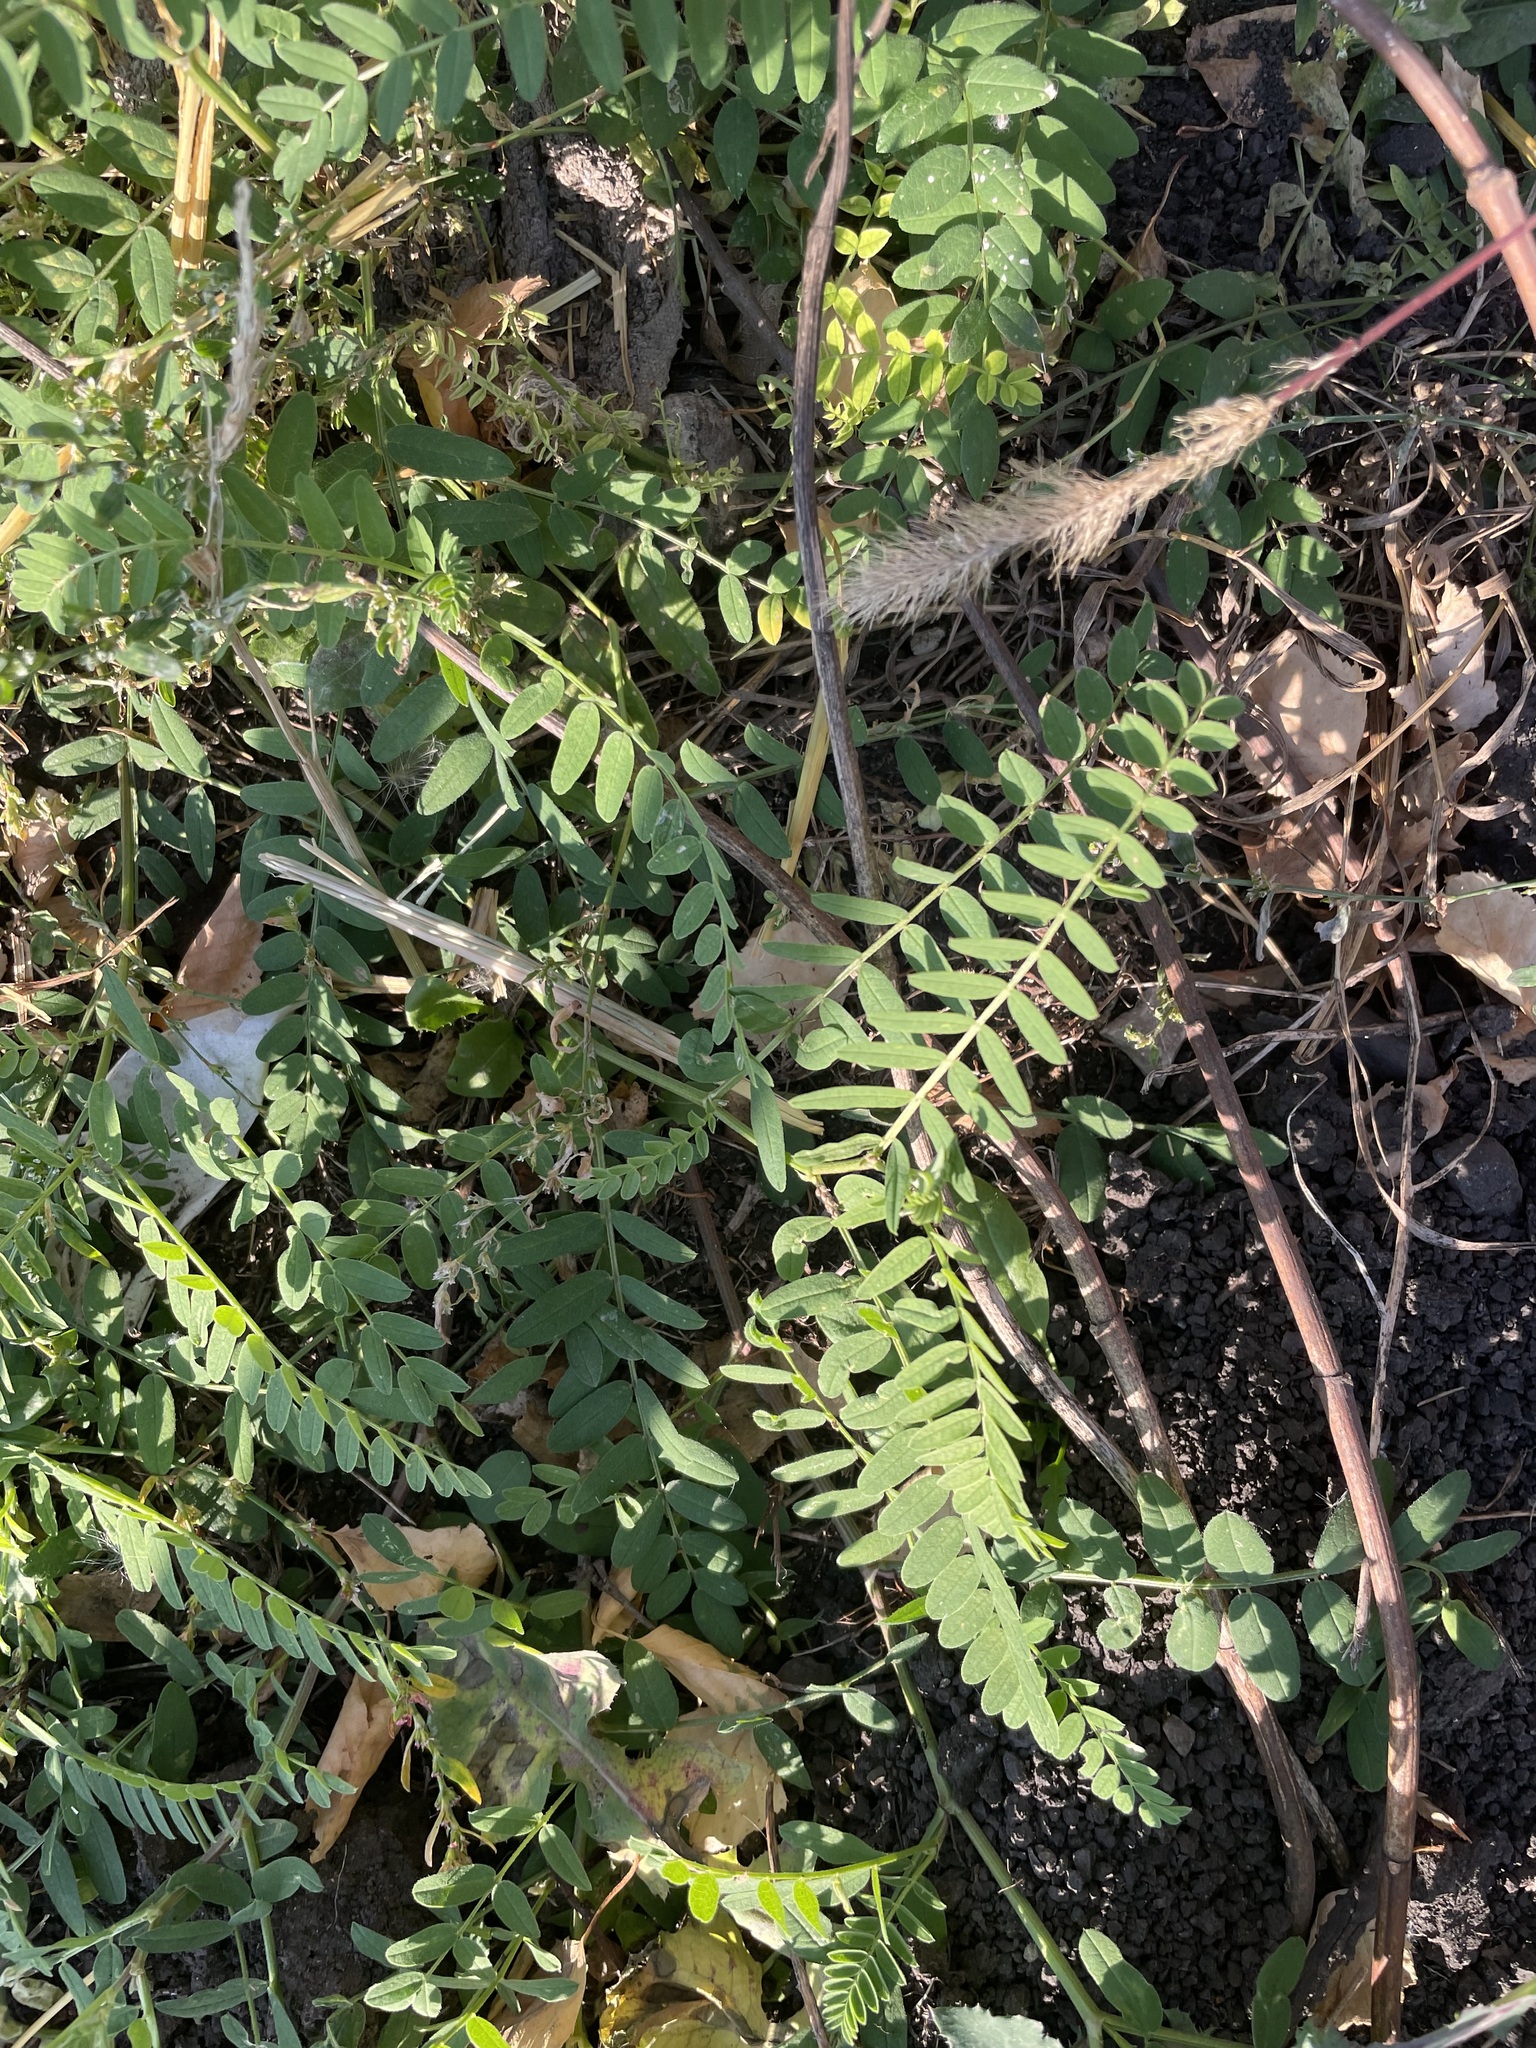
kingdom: Plantae
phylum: Tracheophyta
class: Magnoliopsida
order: Fabales
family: Fabaceae
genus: Astragalus
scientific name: Astragalus cicer
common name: Chick-pea milk-vetch
